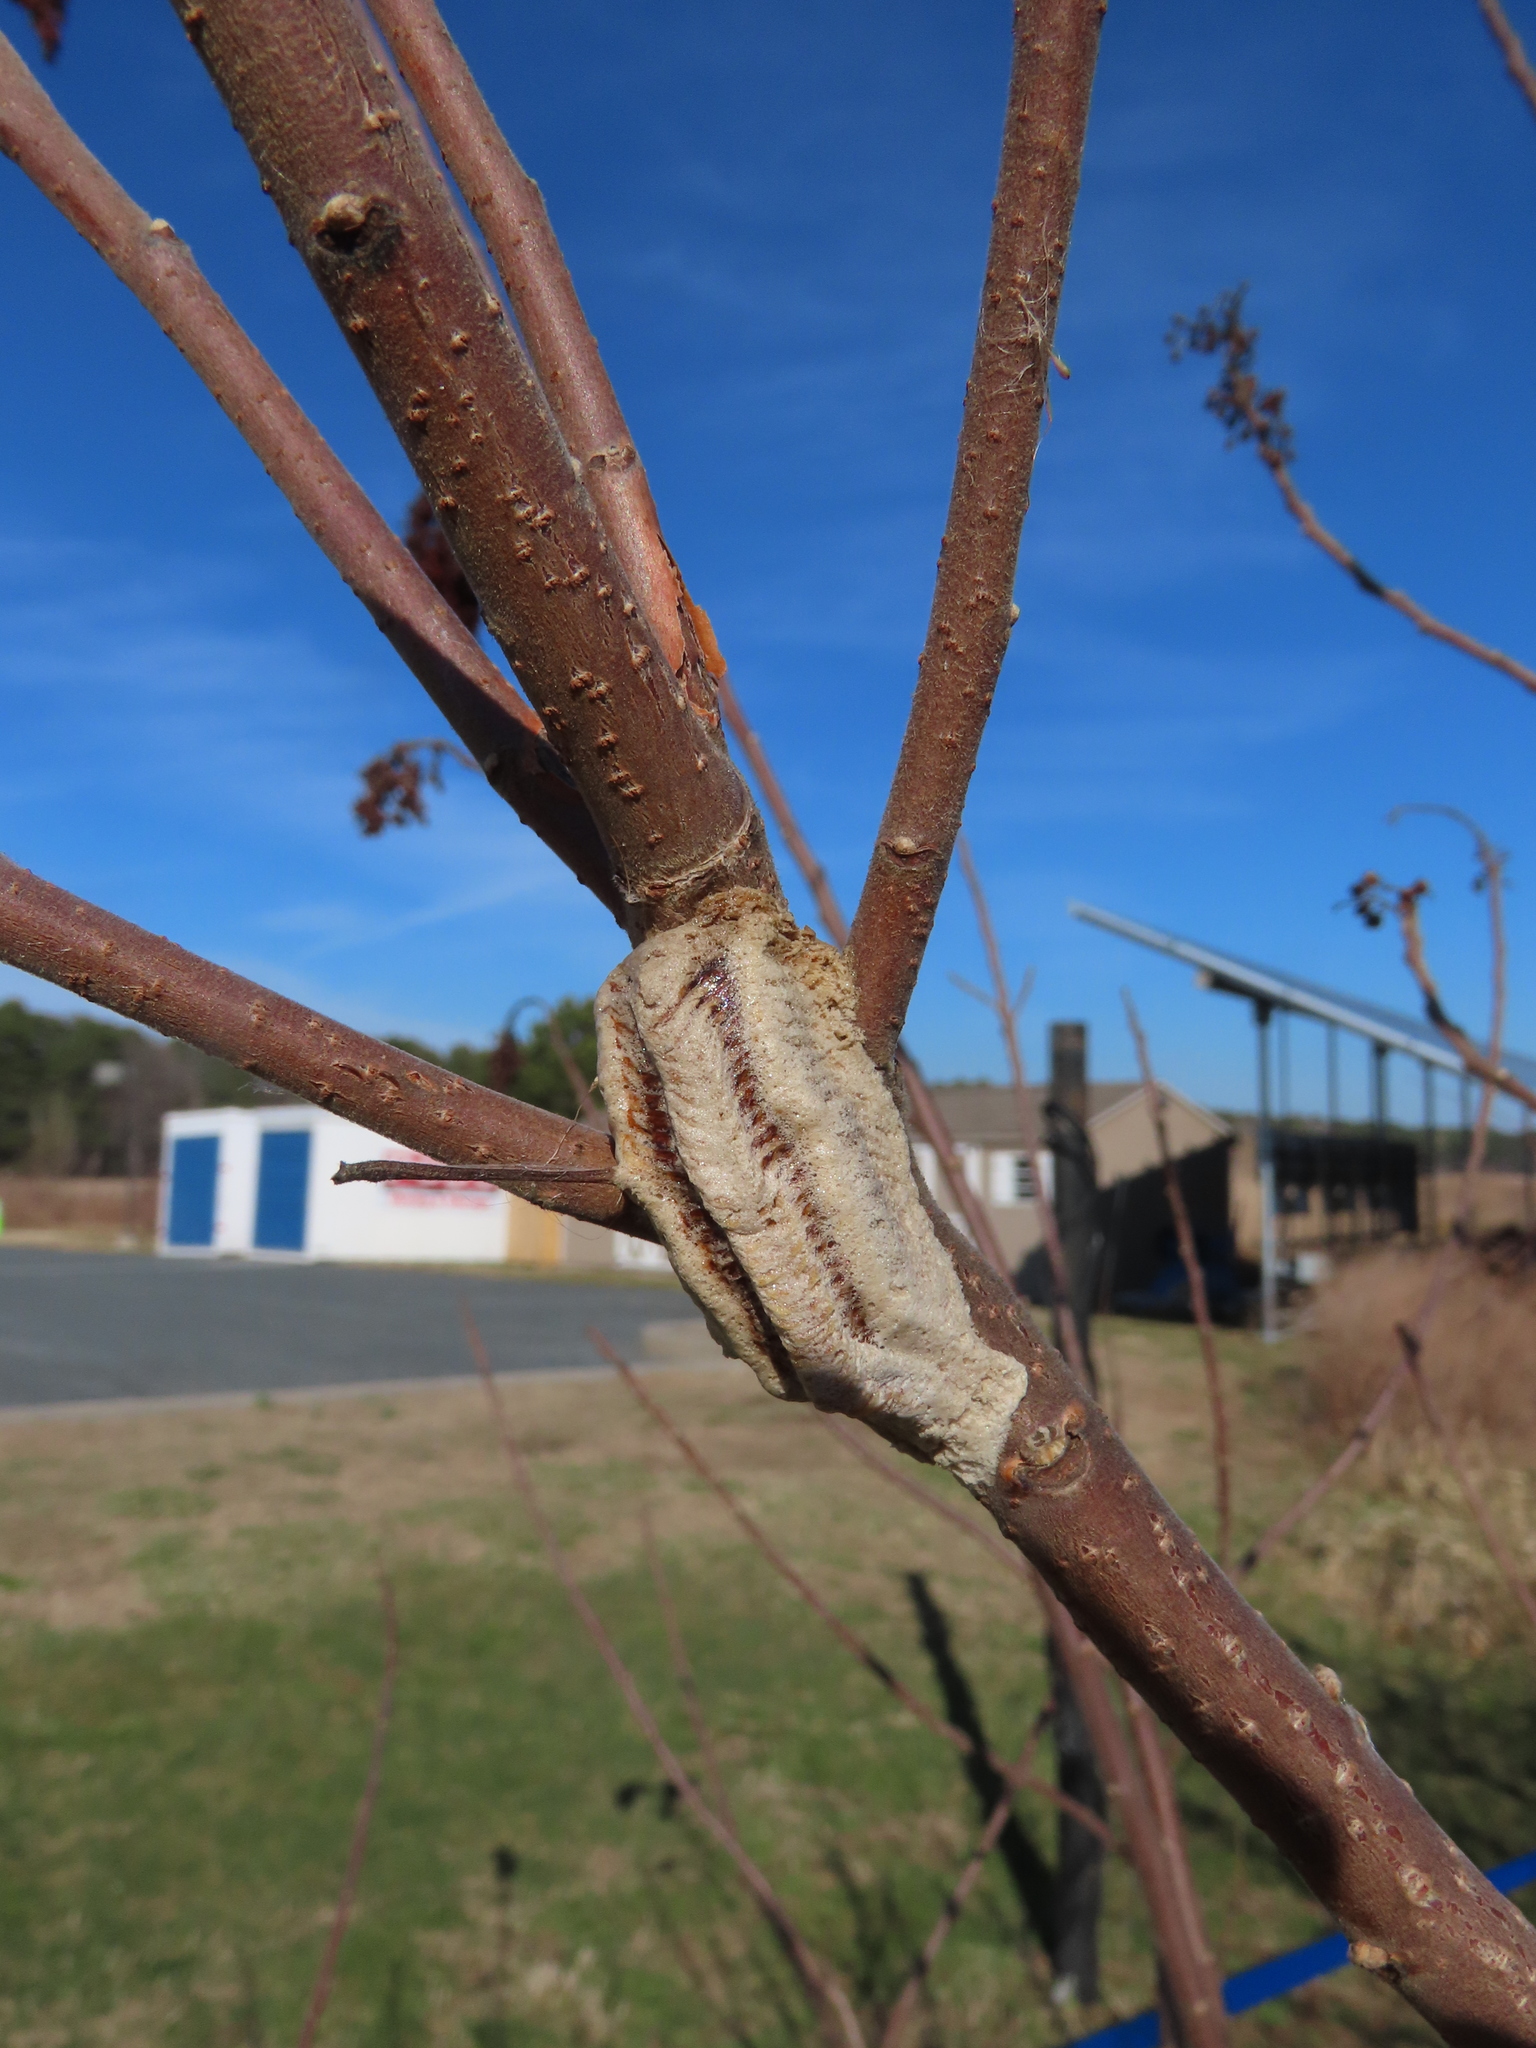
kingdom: Animalia
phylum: Arthropoda
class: Insecta
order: Mantodea
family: Mantidae
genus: Tenodera
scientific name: Tenodera angustipennis
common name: Asian mantis
